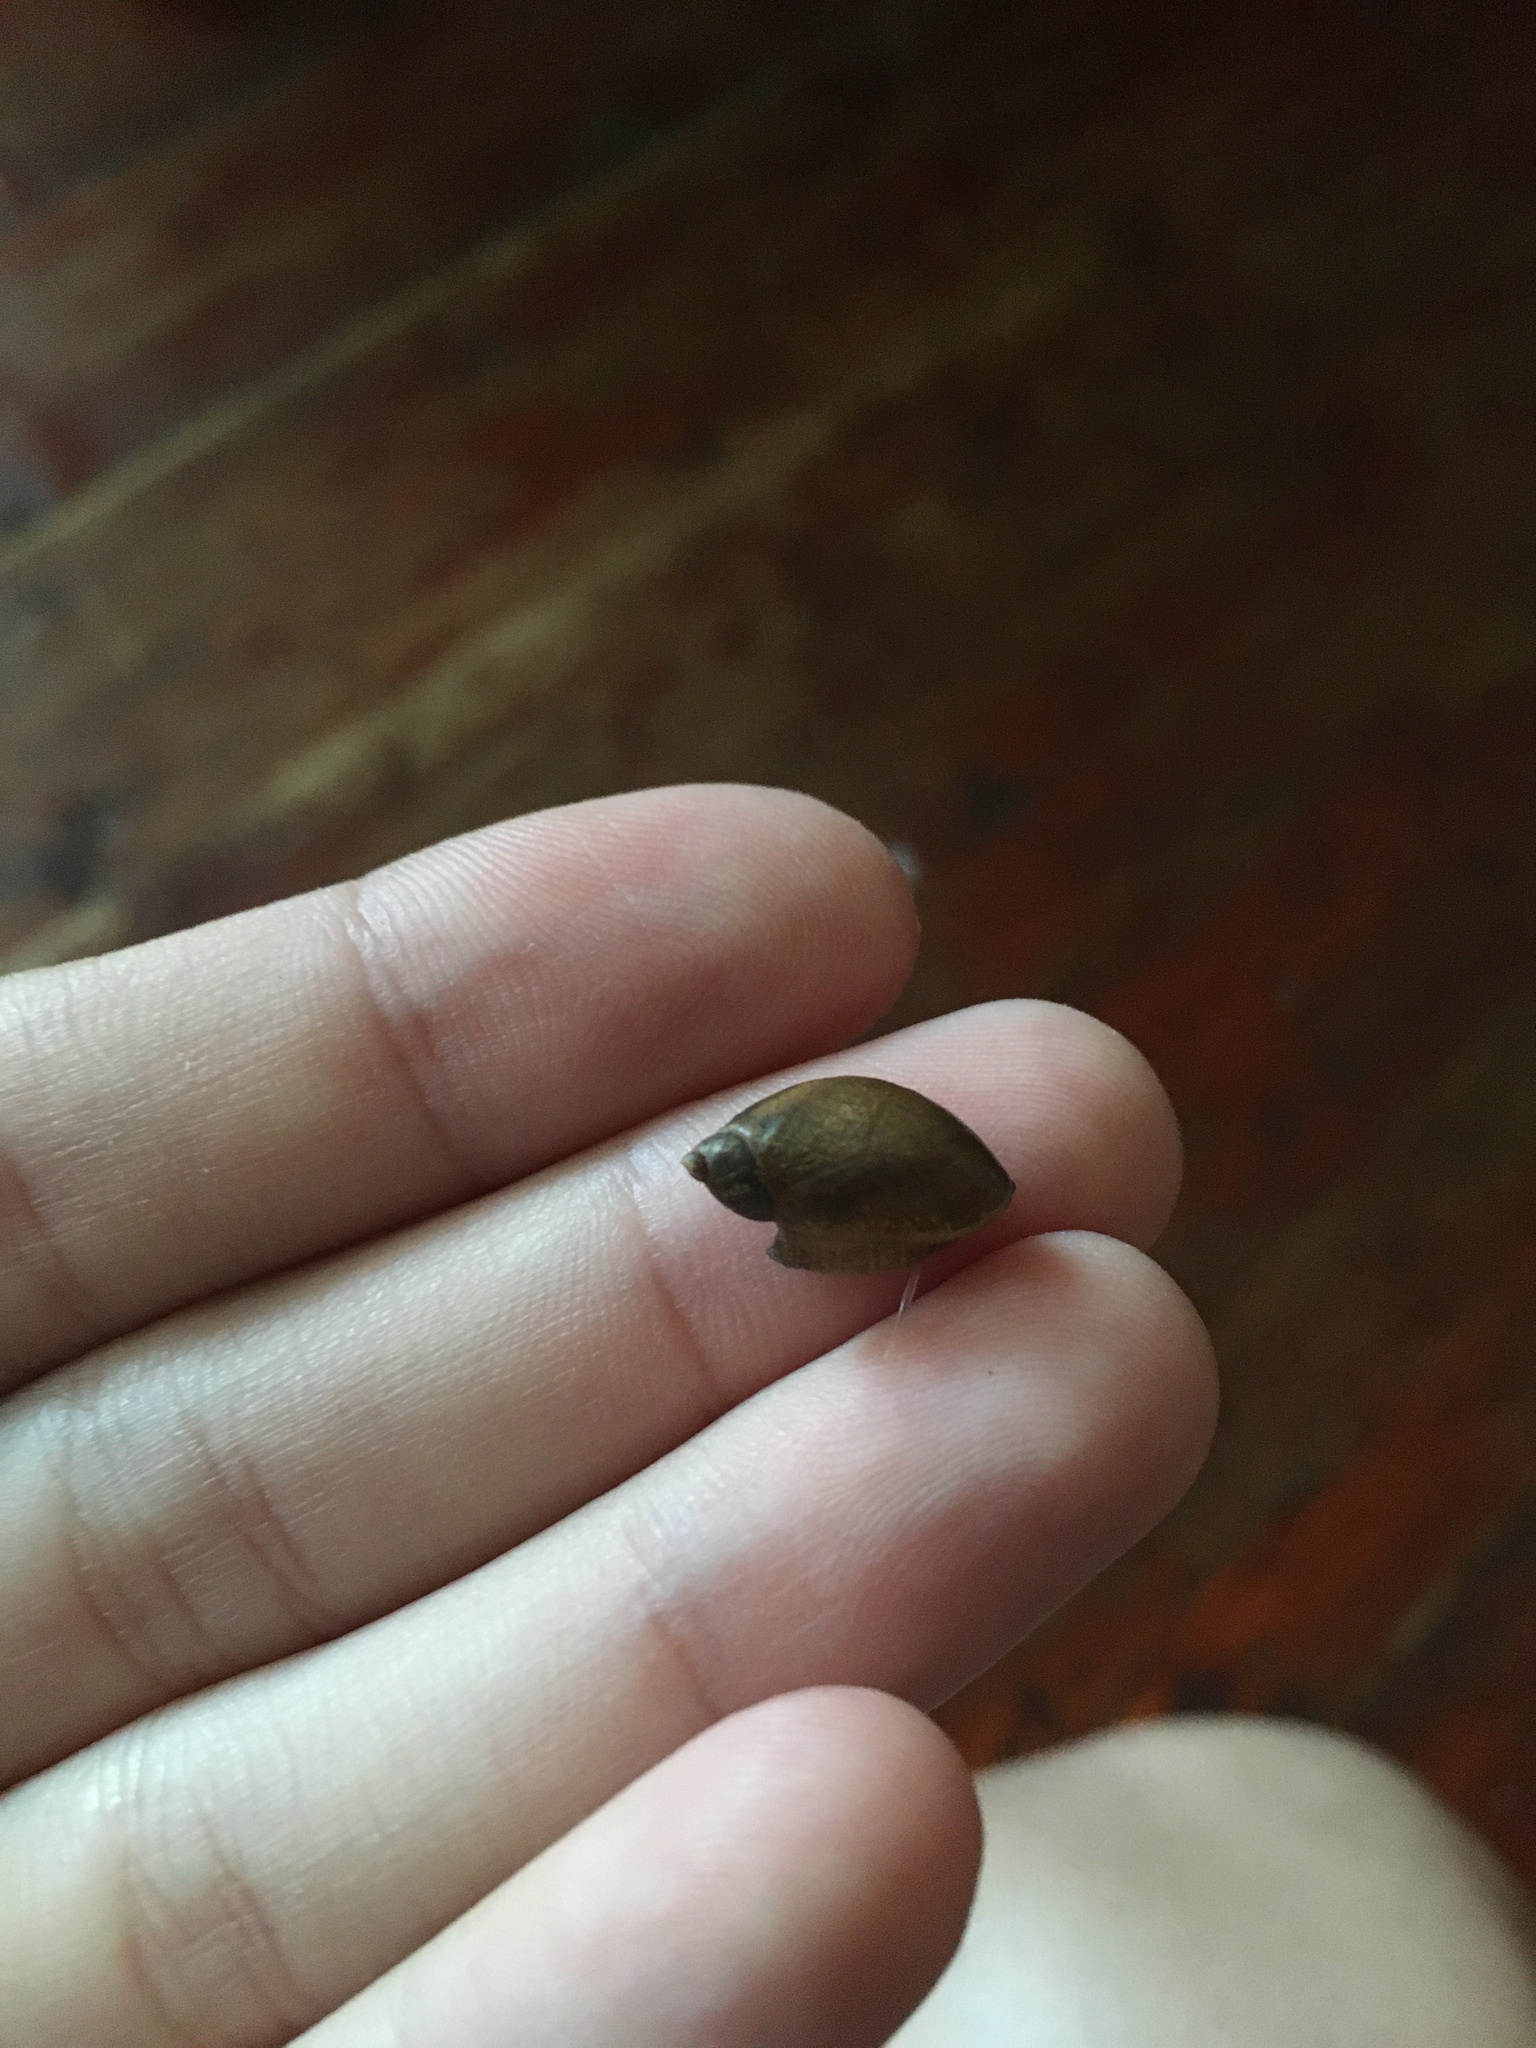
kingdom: Animalia
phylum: Mollusca
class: Gastropoda
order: Stylommatophora
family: Succineidae
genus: Succinea
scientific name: Succinea putris
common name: European ambersnail
